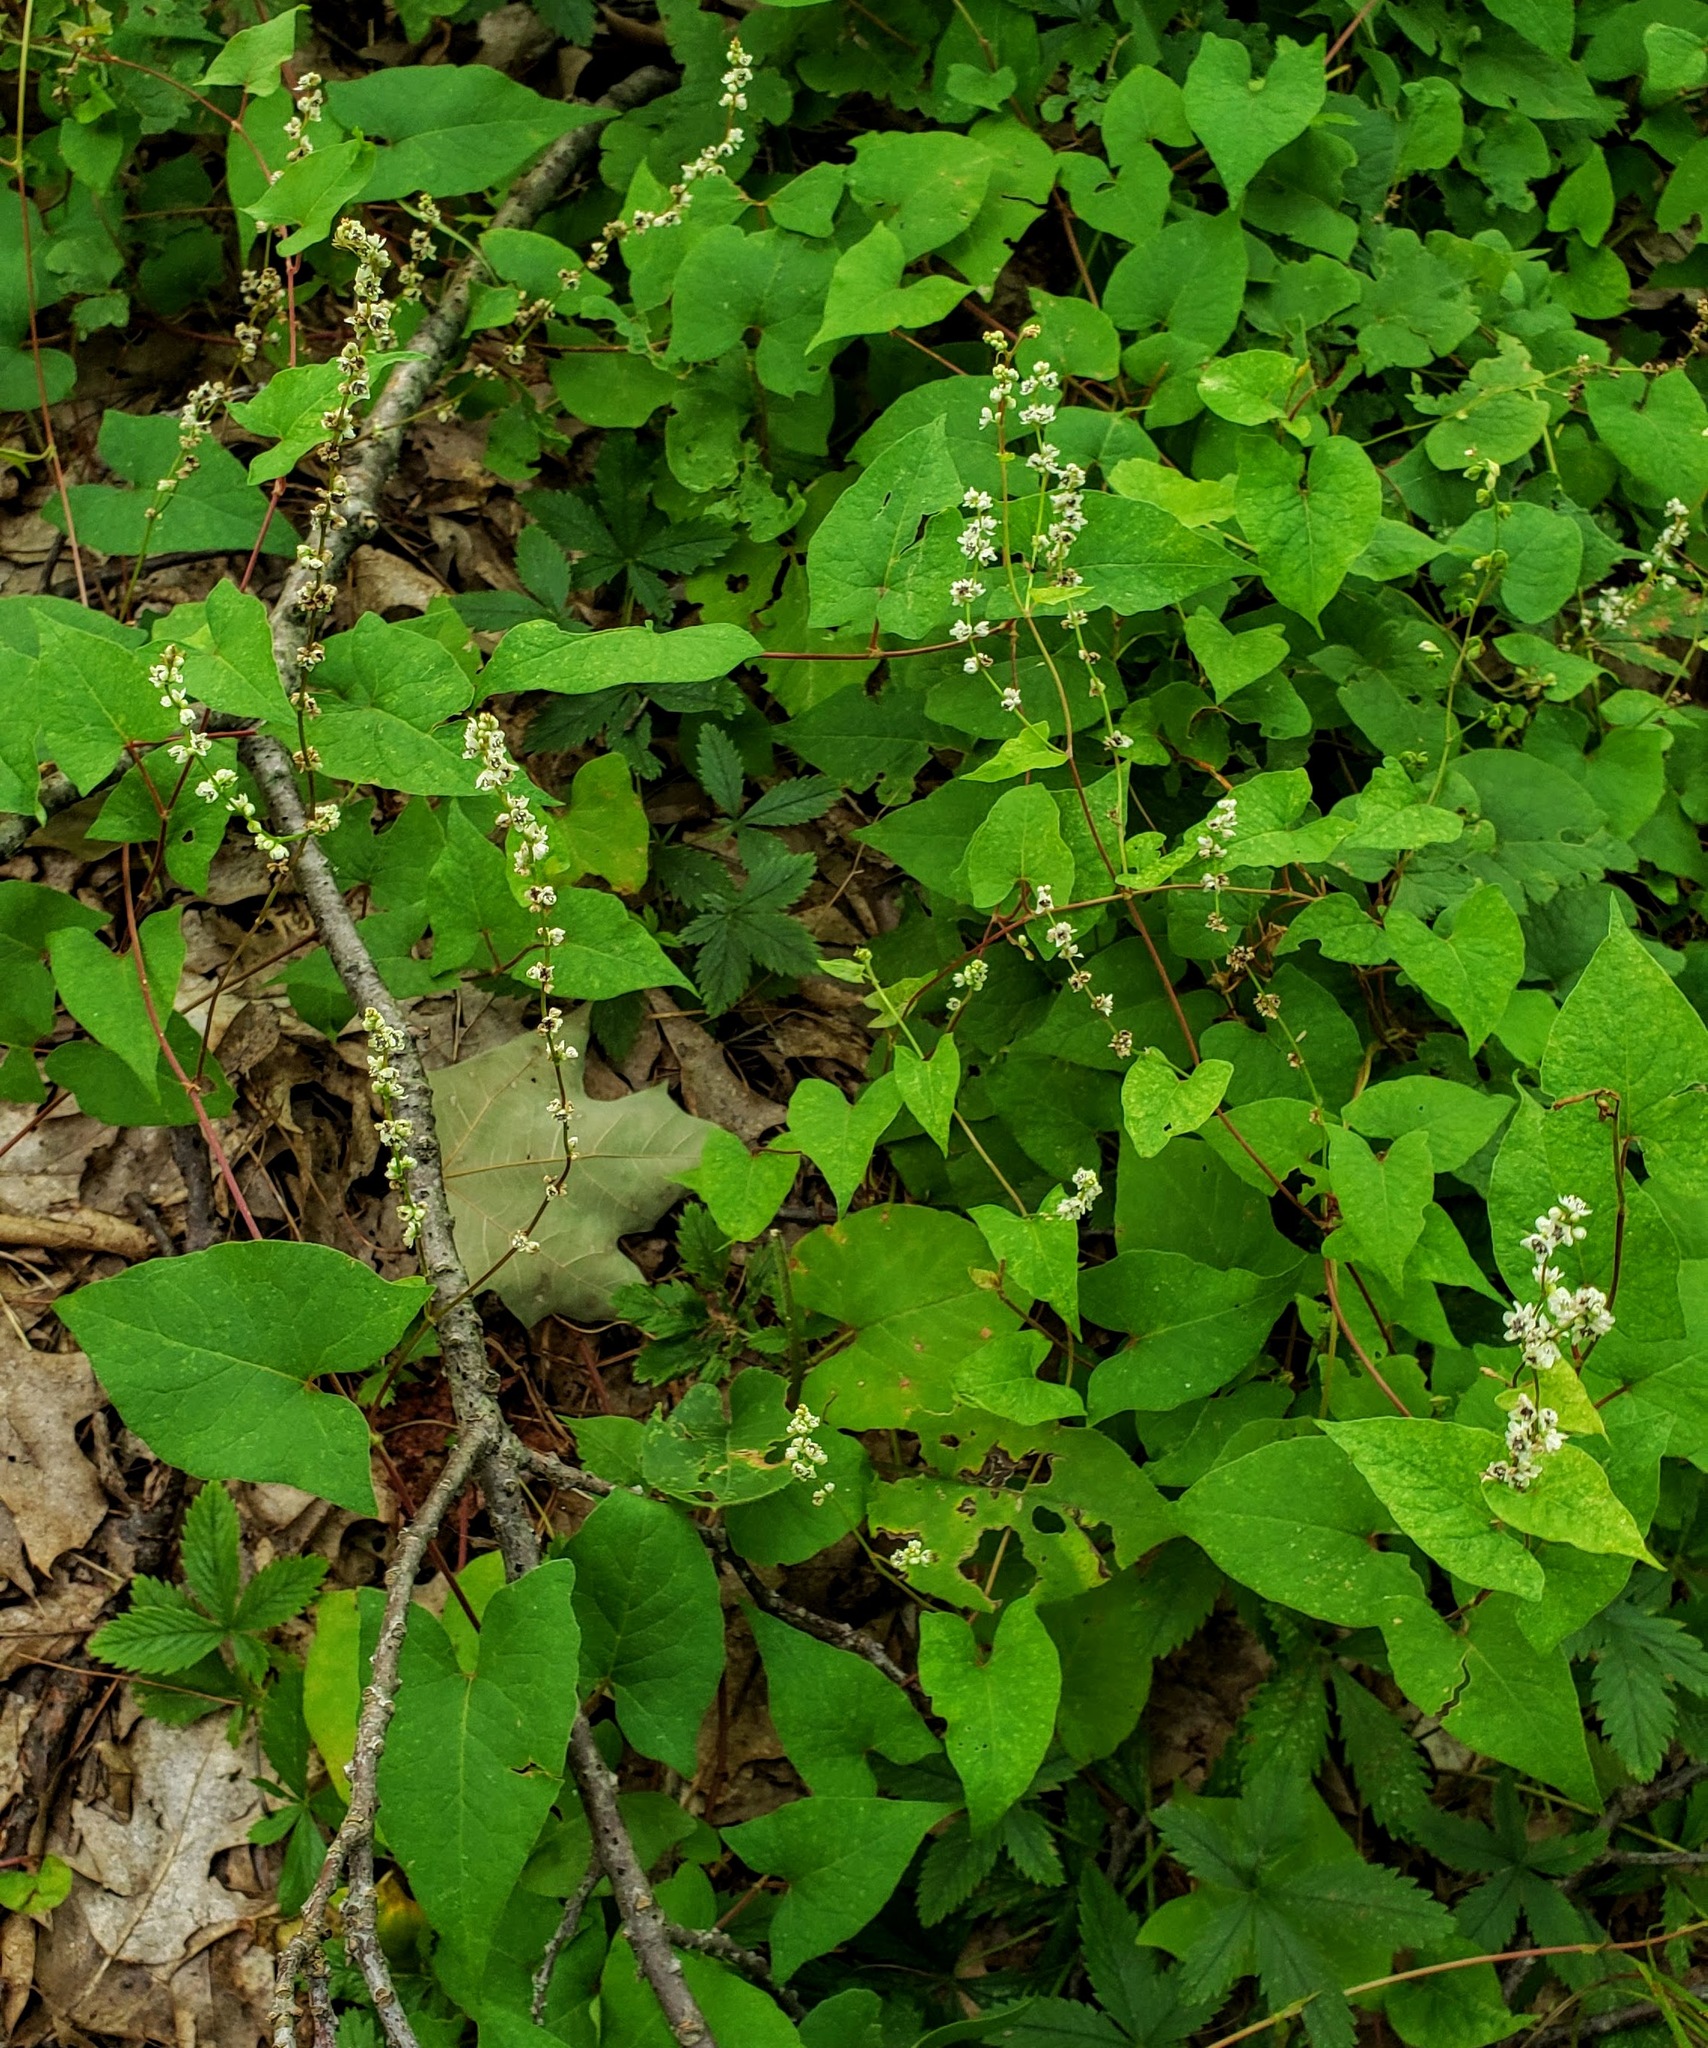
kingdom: Plantae
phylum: Tracheophyta
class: Magnoliopsida
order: Caryophyllales
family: Polygonaceae
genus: Parogonum
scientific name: Parogonum ciliinode
